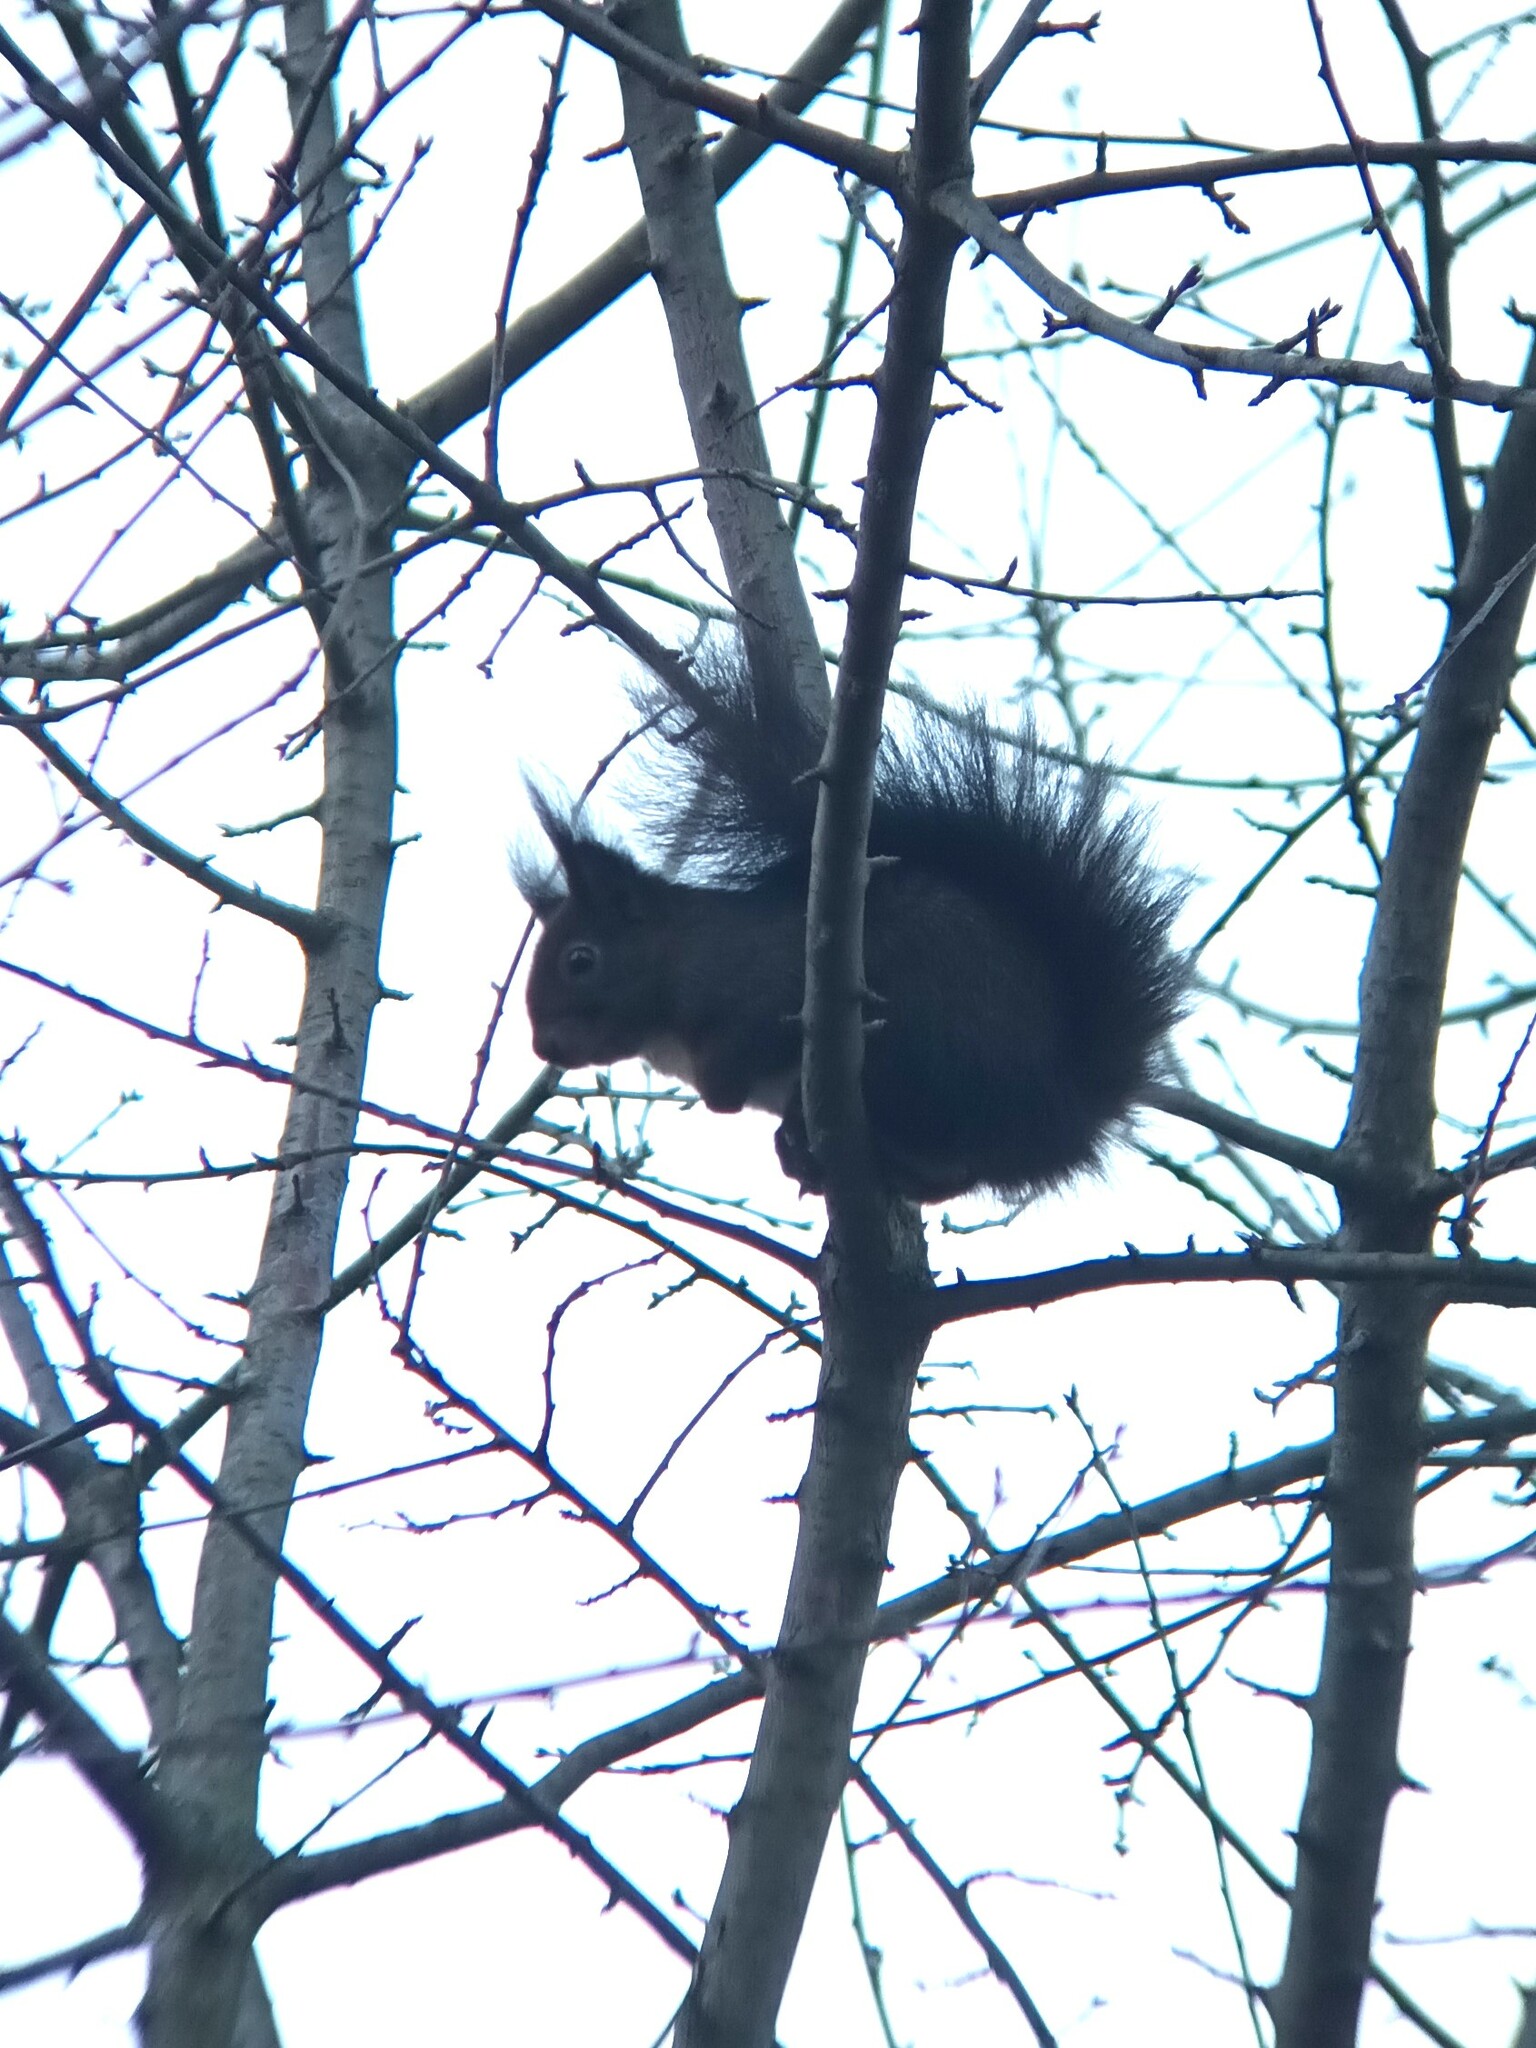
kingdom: Animalia
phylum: Chordata
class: Mammalia
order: Rodentia
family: Sciuridae
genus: Sciurus
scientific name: Sciurus vulgaris
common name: Eurasian red squirrel
